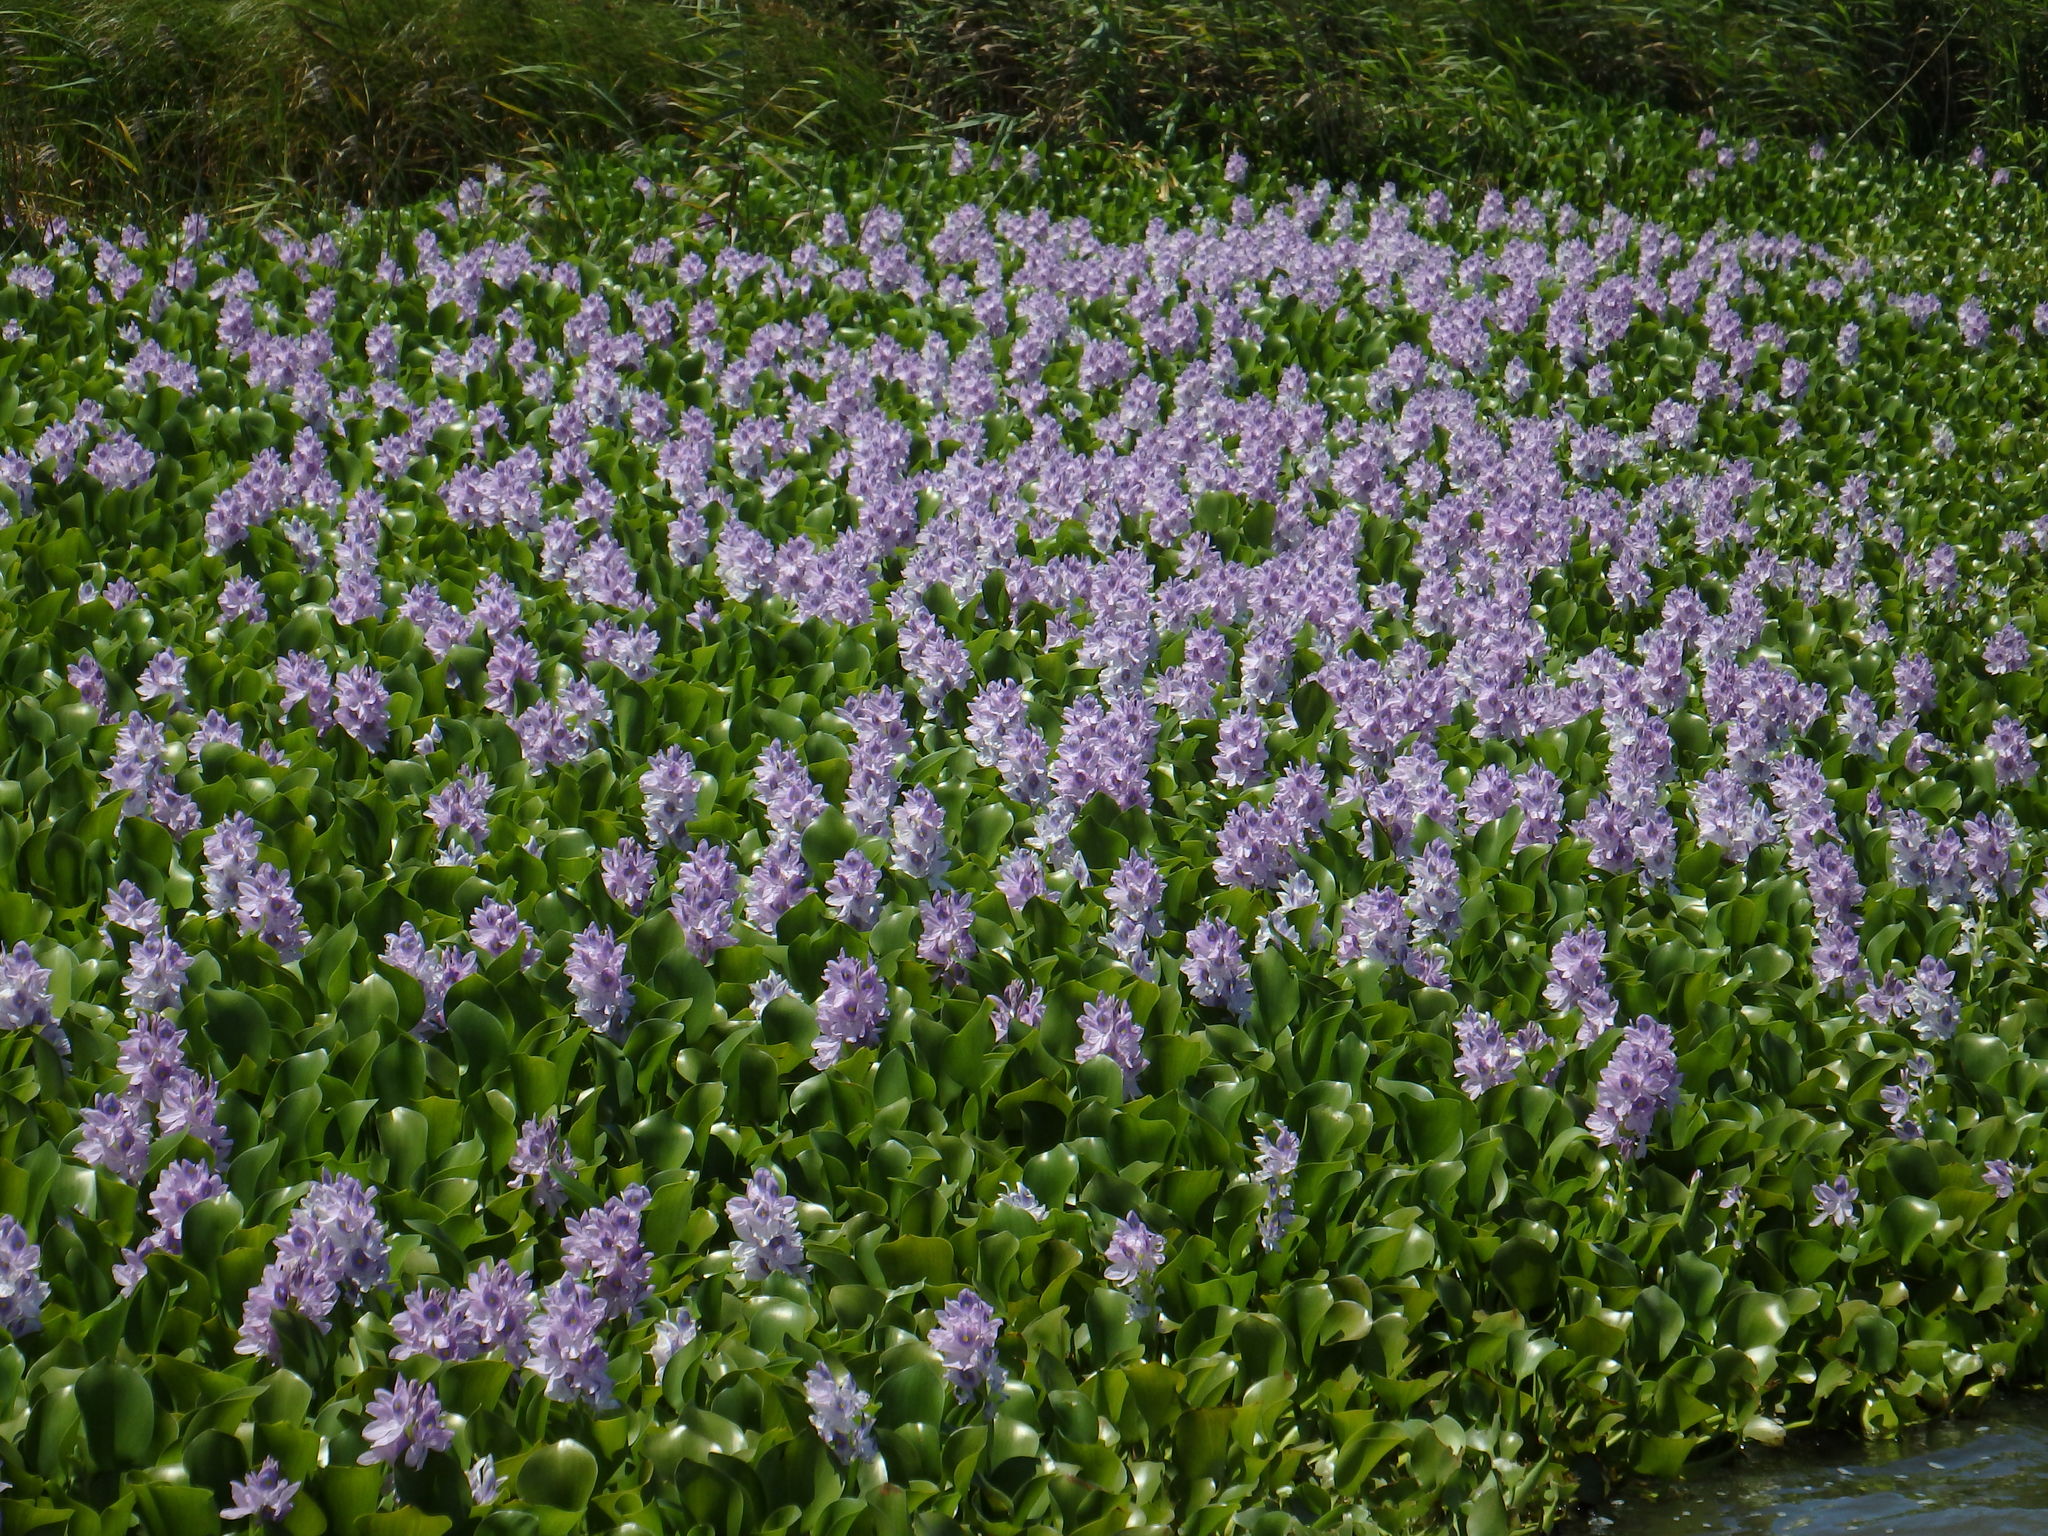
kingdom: Plantae
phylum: Tracheophyta
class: Liliopsida
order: Commelinales
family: Pontederiaceae
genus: Pontederia
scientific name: Pontederia crassipes
